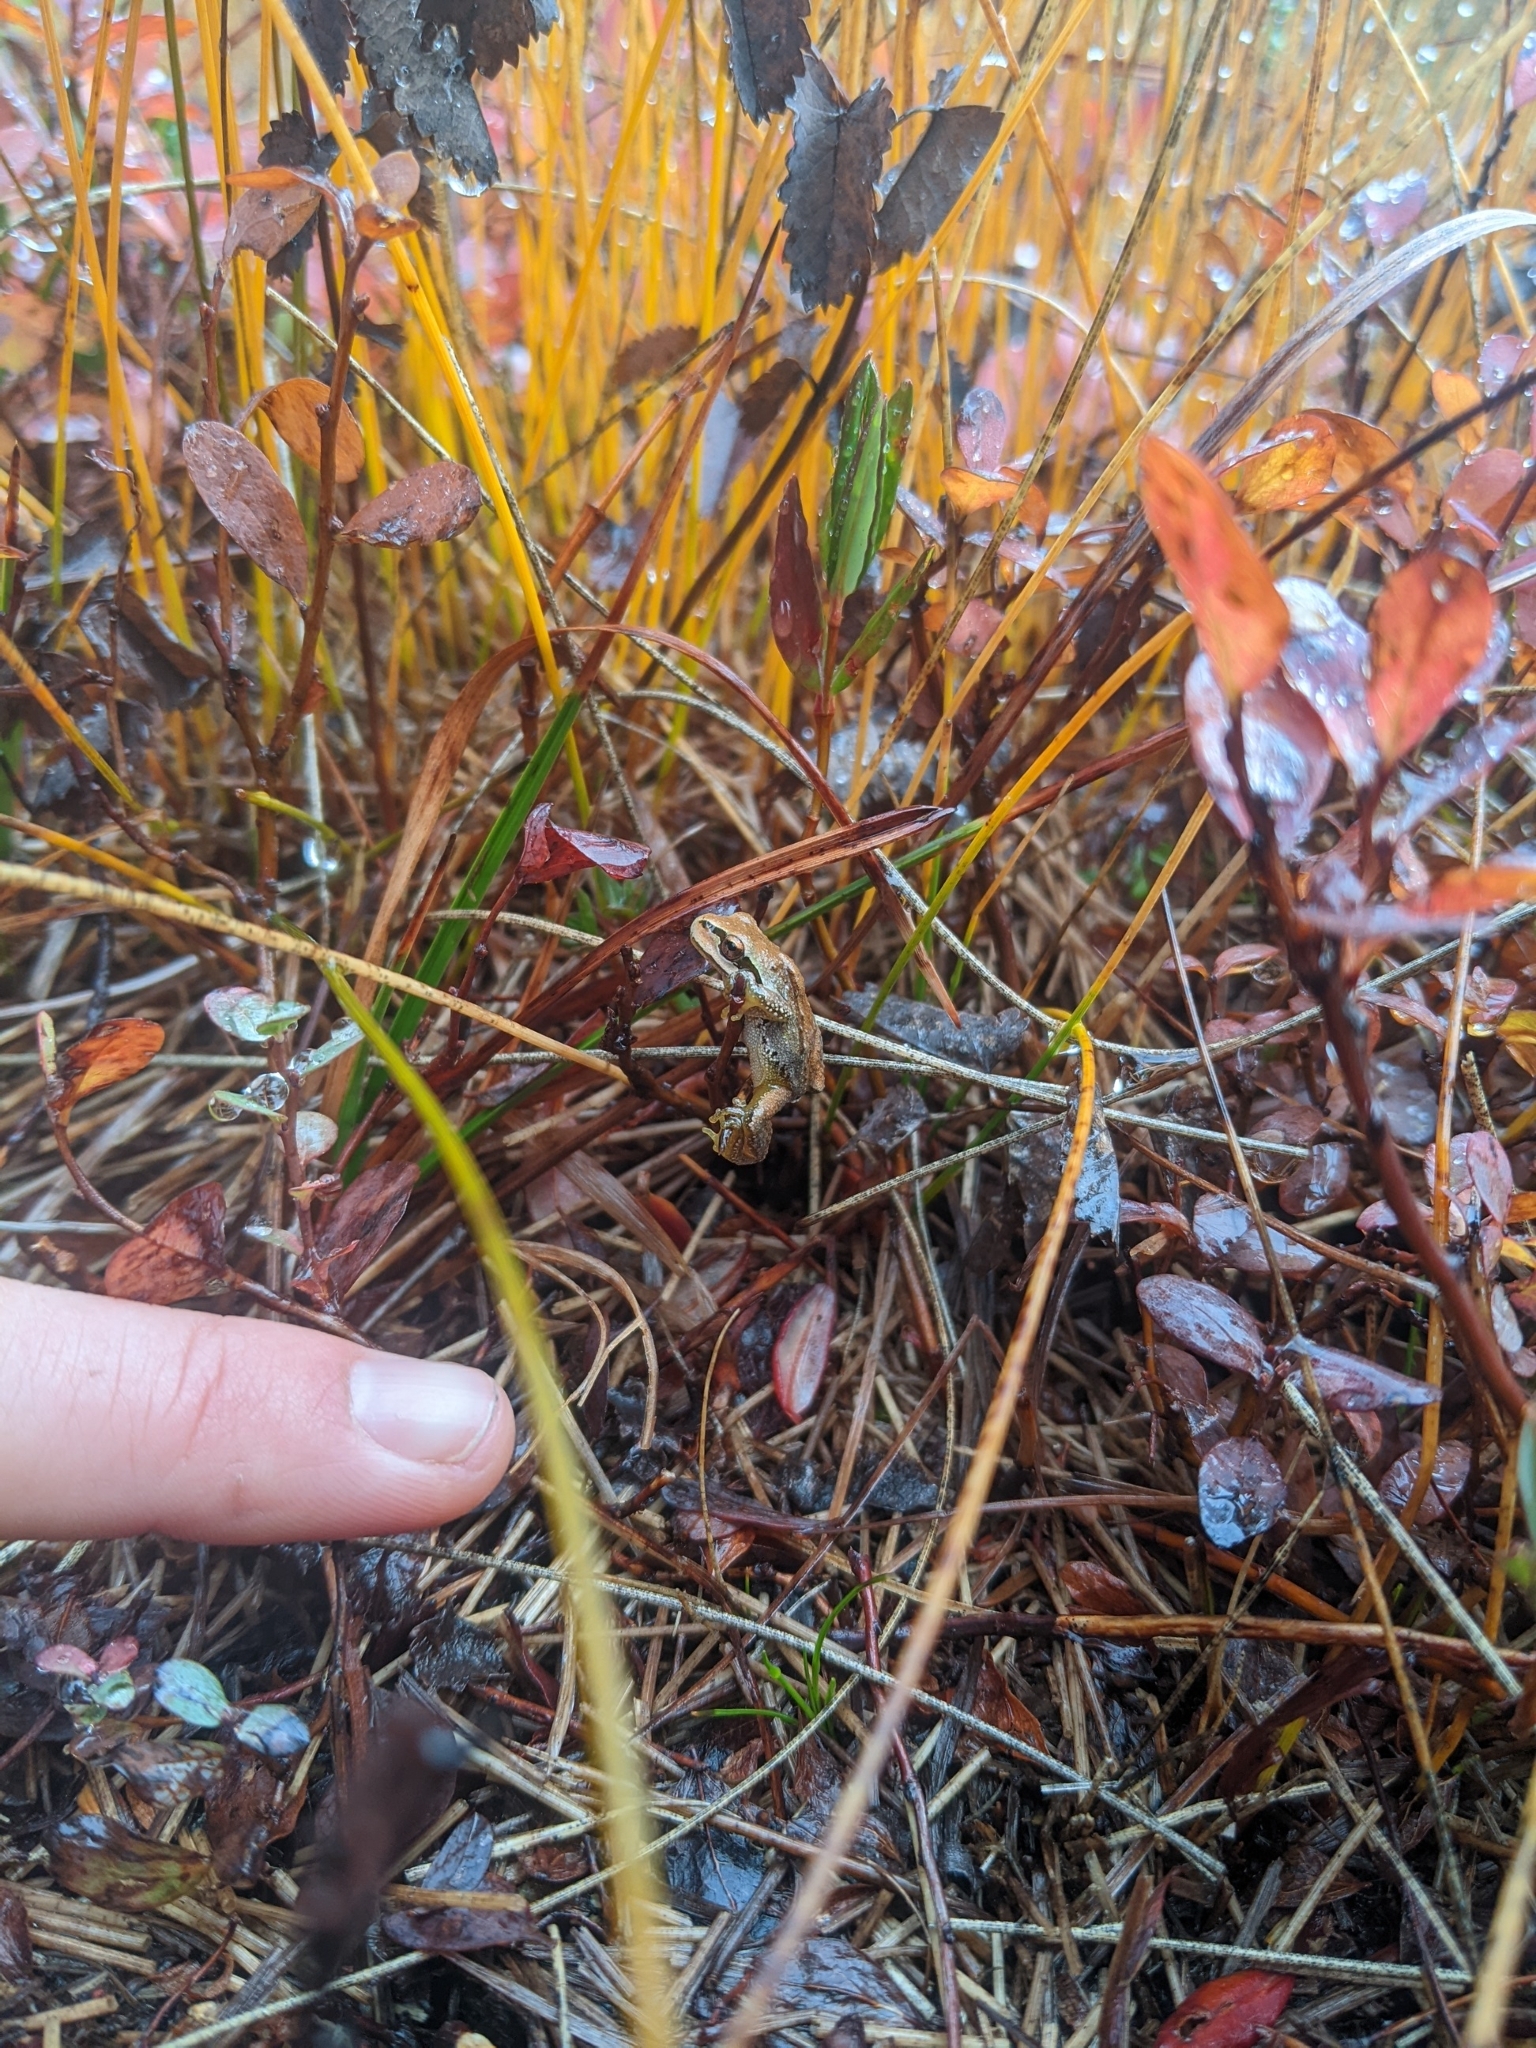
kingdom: Animalia
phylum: Chordata
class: Amphibia
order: Anura
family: Hylidae
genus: Pseudacris
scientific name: Pseudacris regilla
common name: Pacific chorus frog
